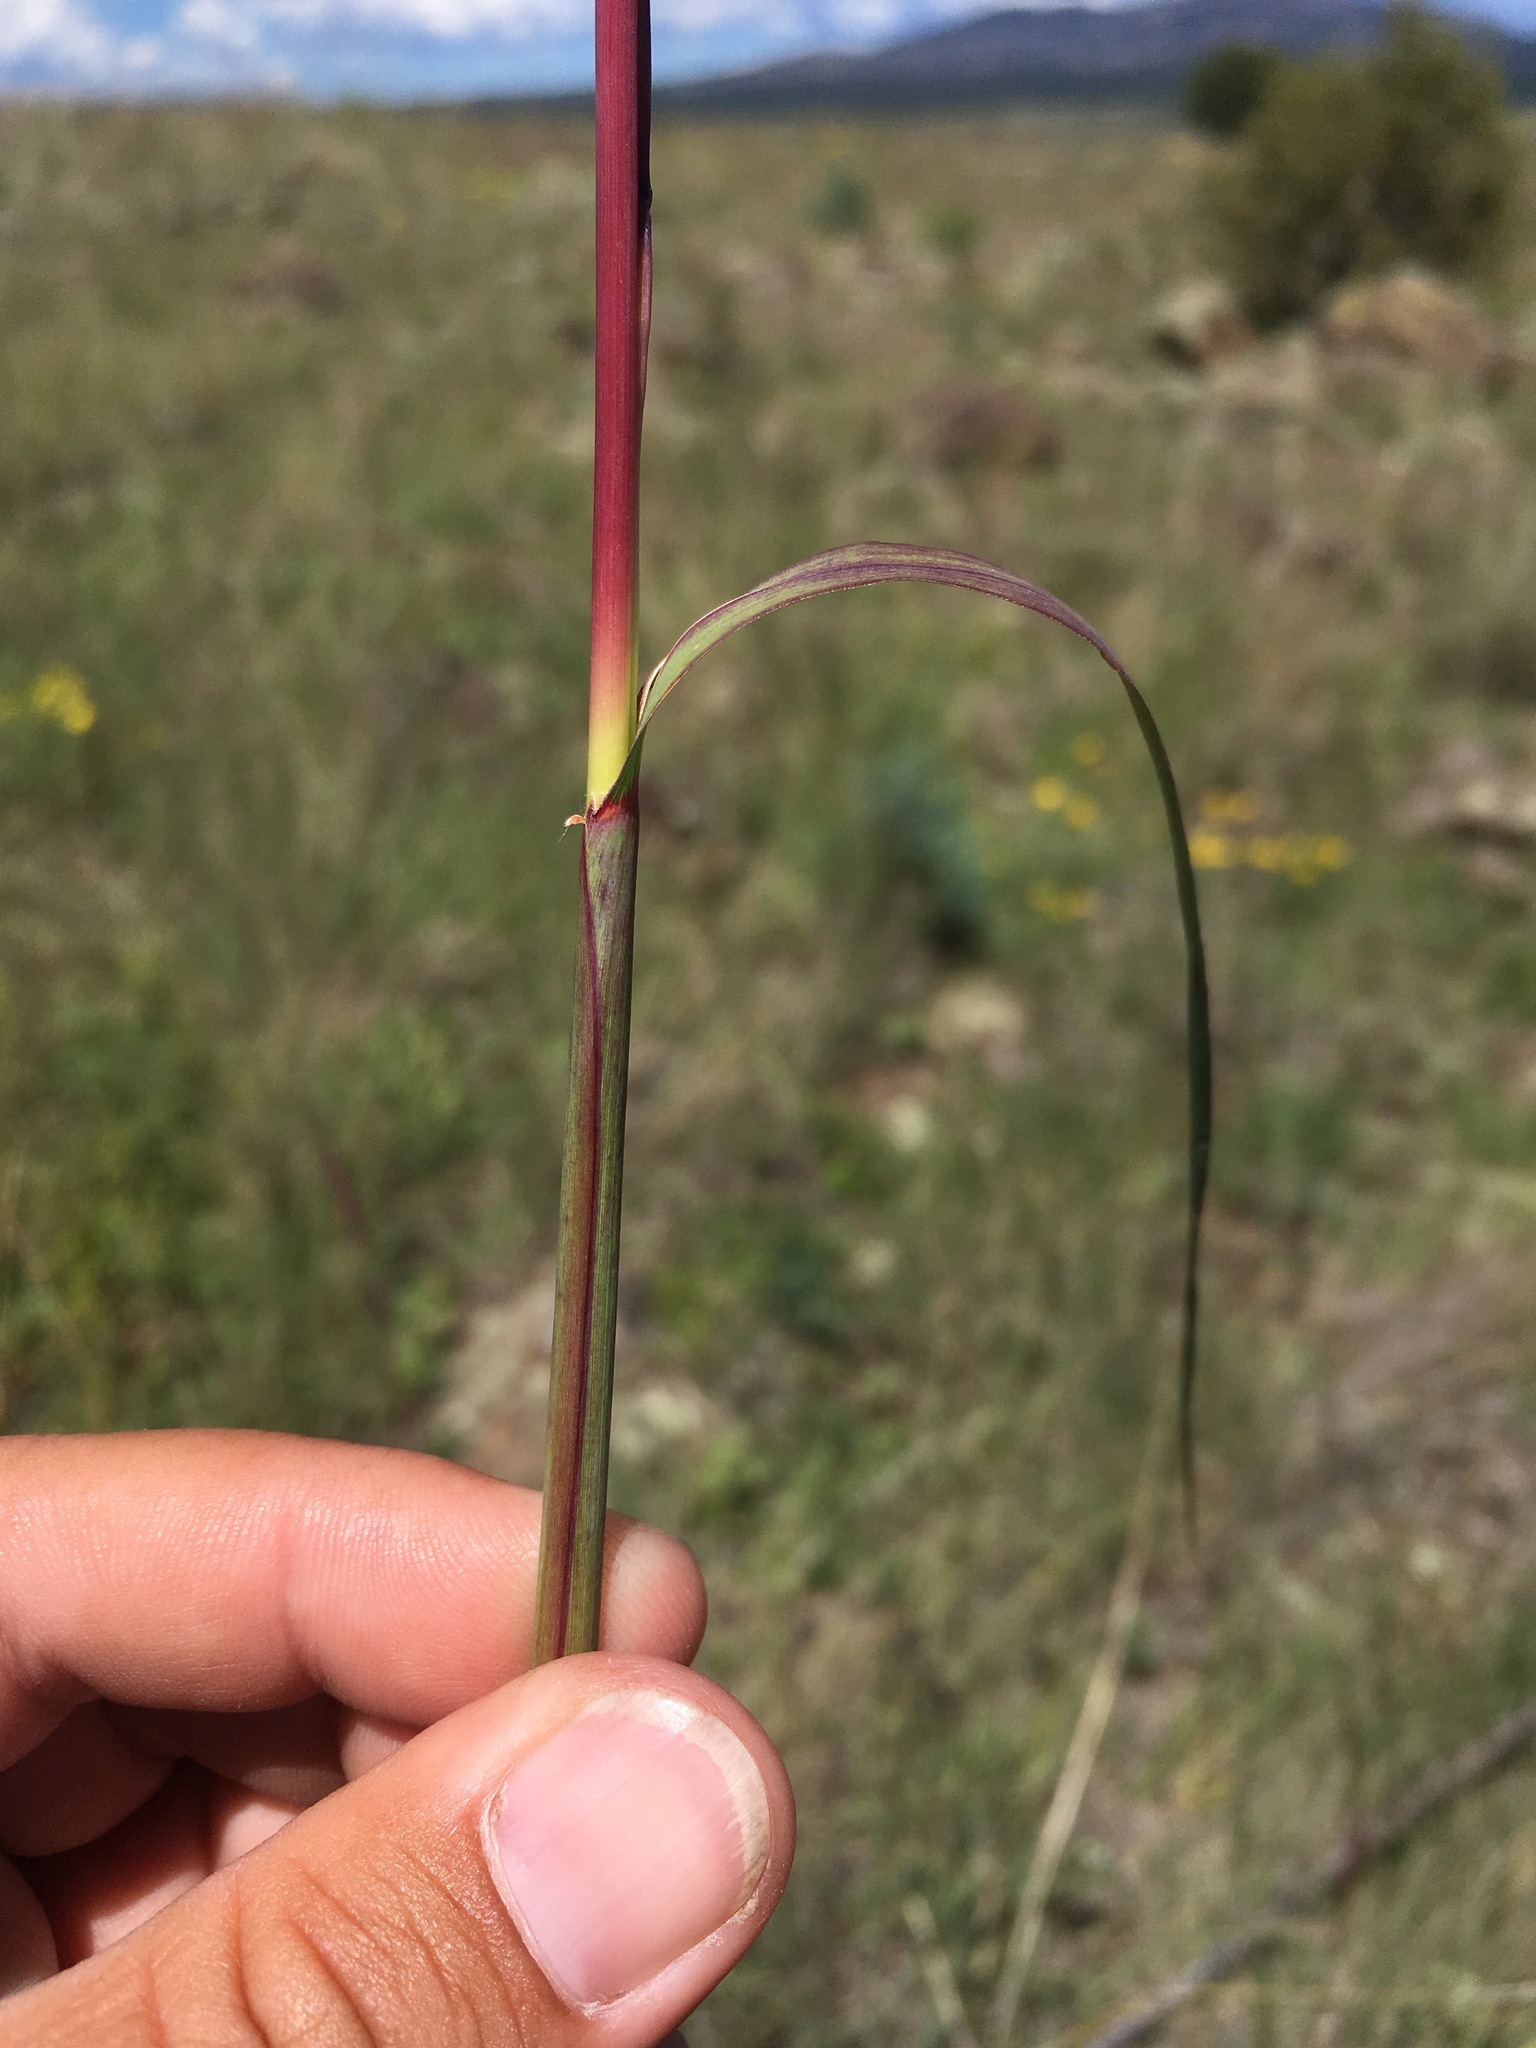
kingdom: Plantae
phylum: Tracheophyta
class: Liliopsida
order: Poales
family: Poaceae
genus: Andropogon
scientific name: Andropogon gerardi
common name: Big bluestem
